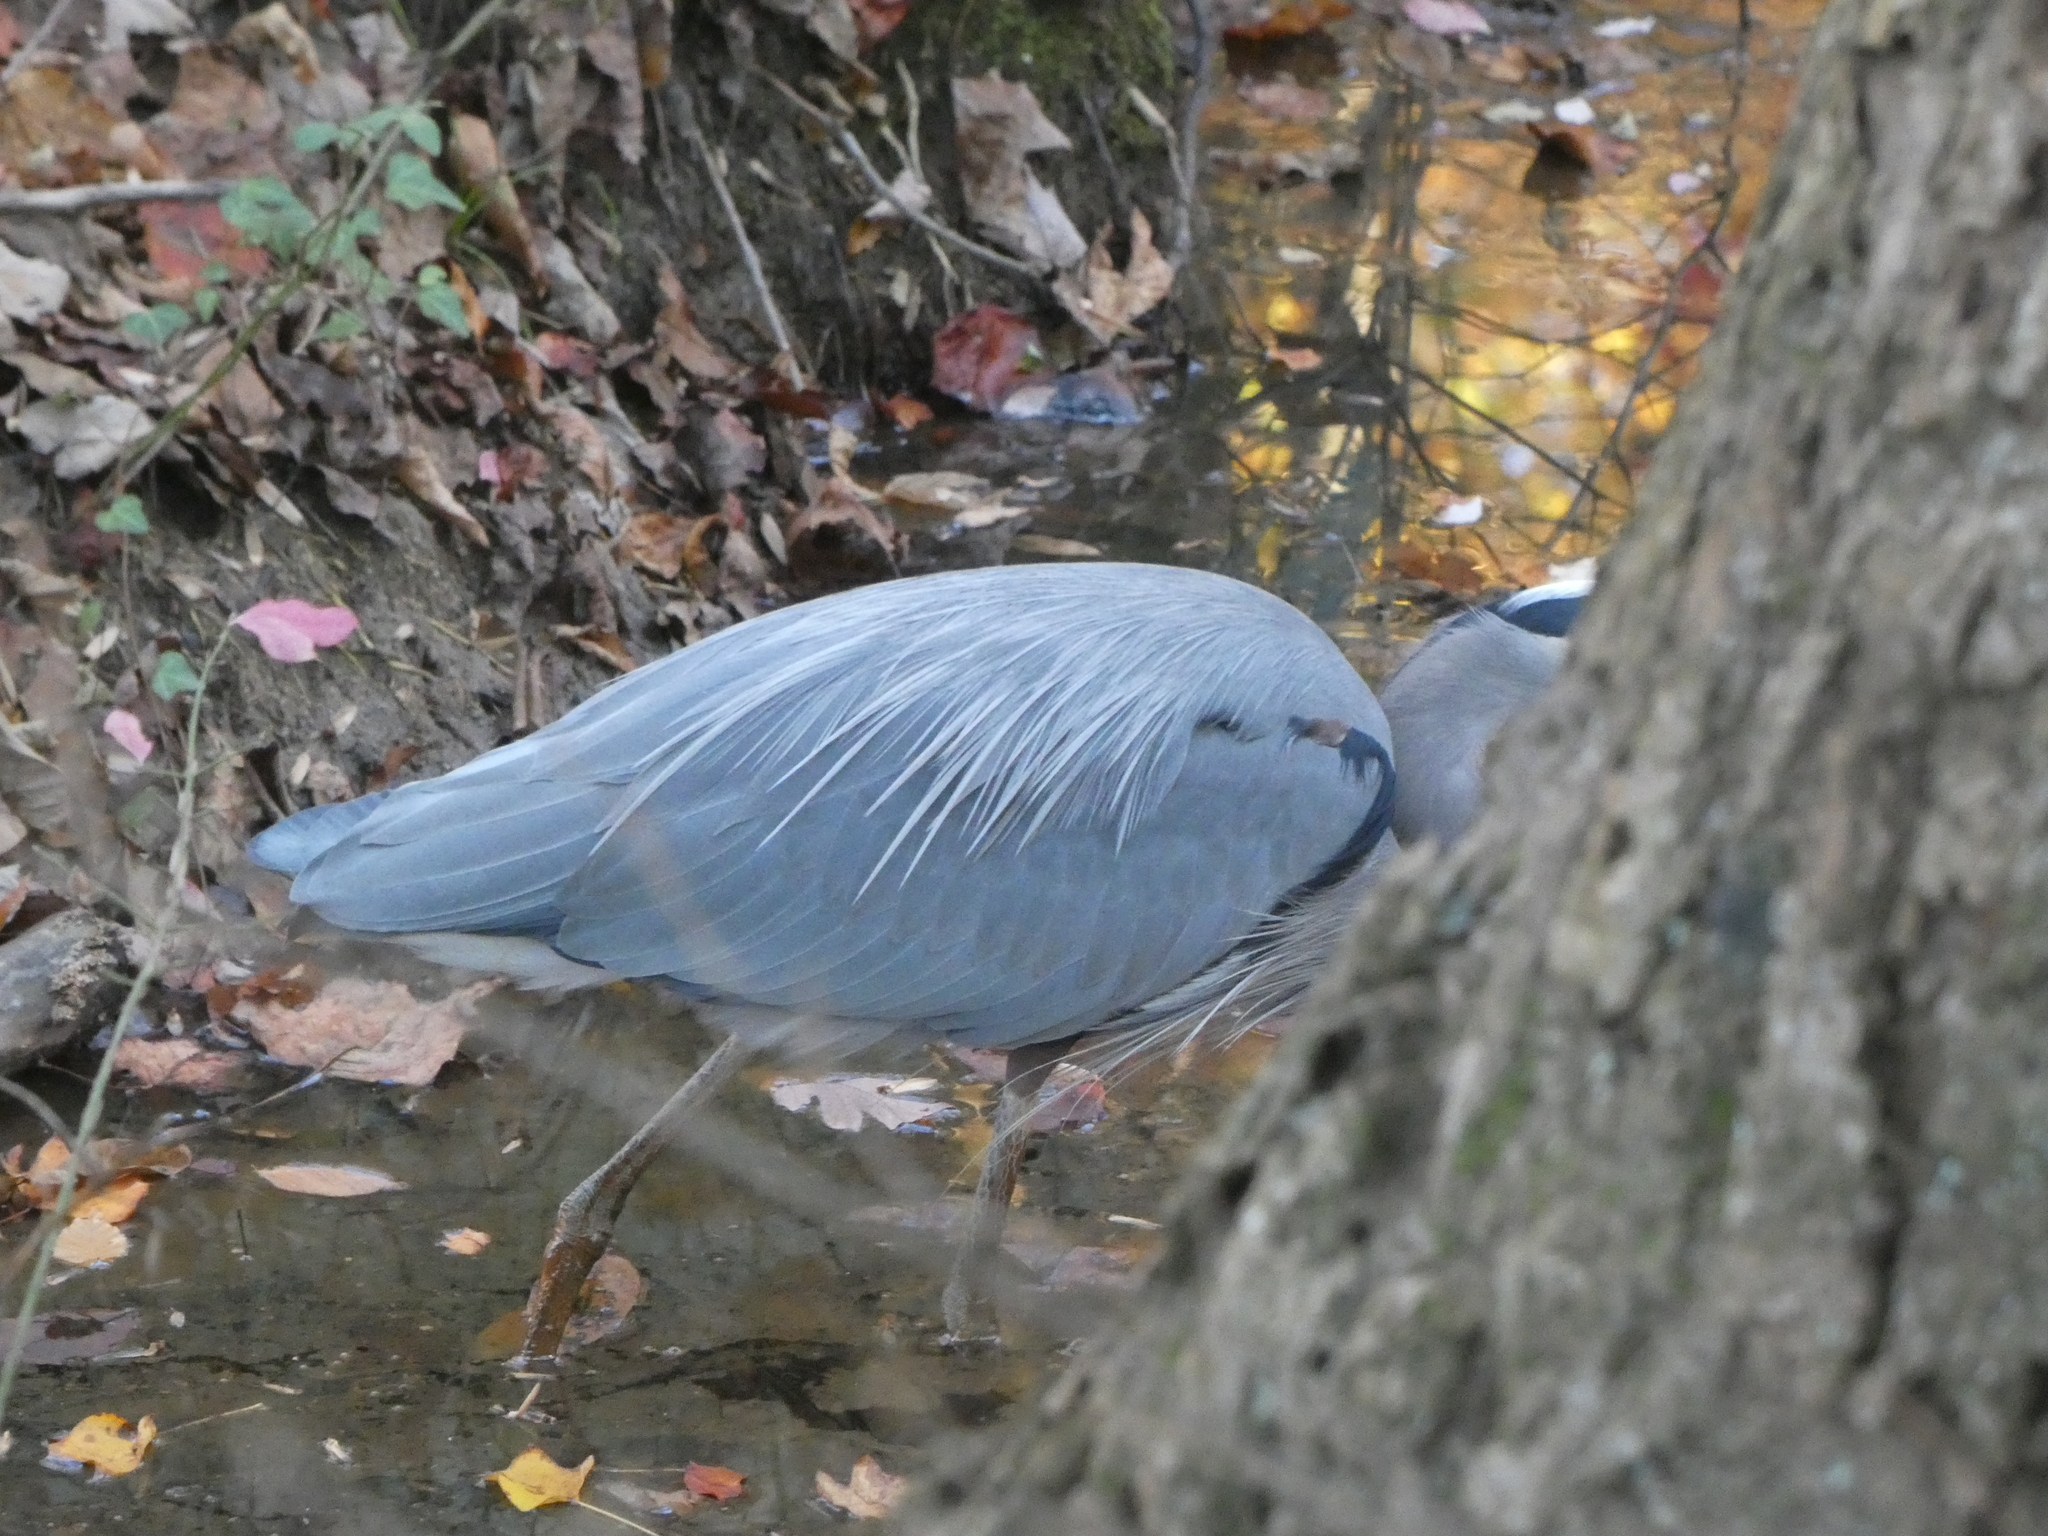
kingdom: Animalia
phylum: Chordata
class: Aves
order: Pelecaniformes
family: Ardeidae
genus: Ardea
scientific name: Ardea herodias
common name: Great blue heron
